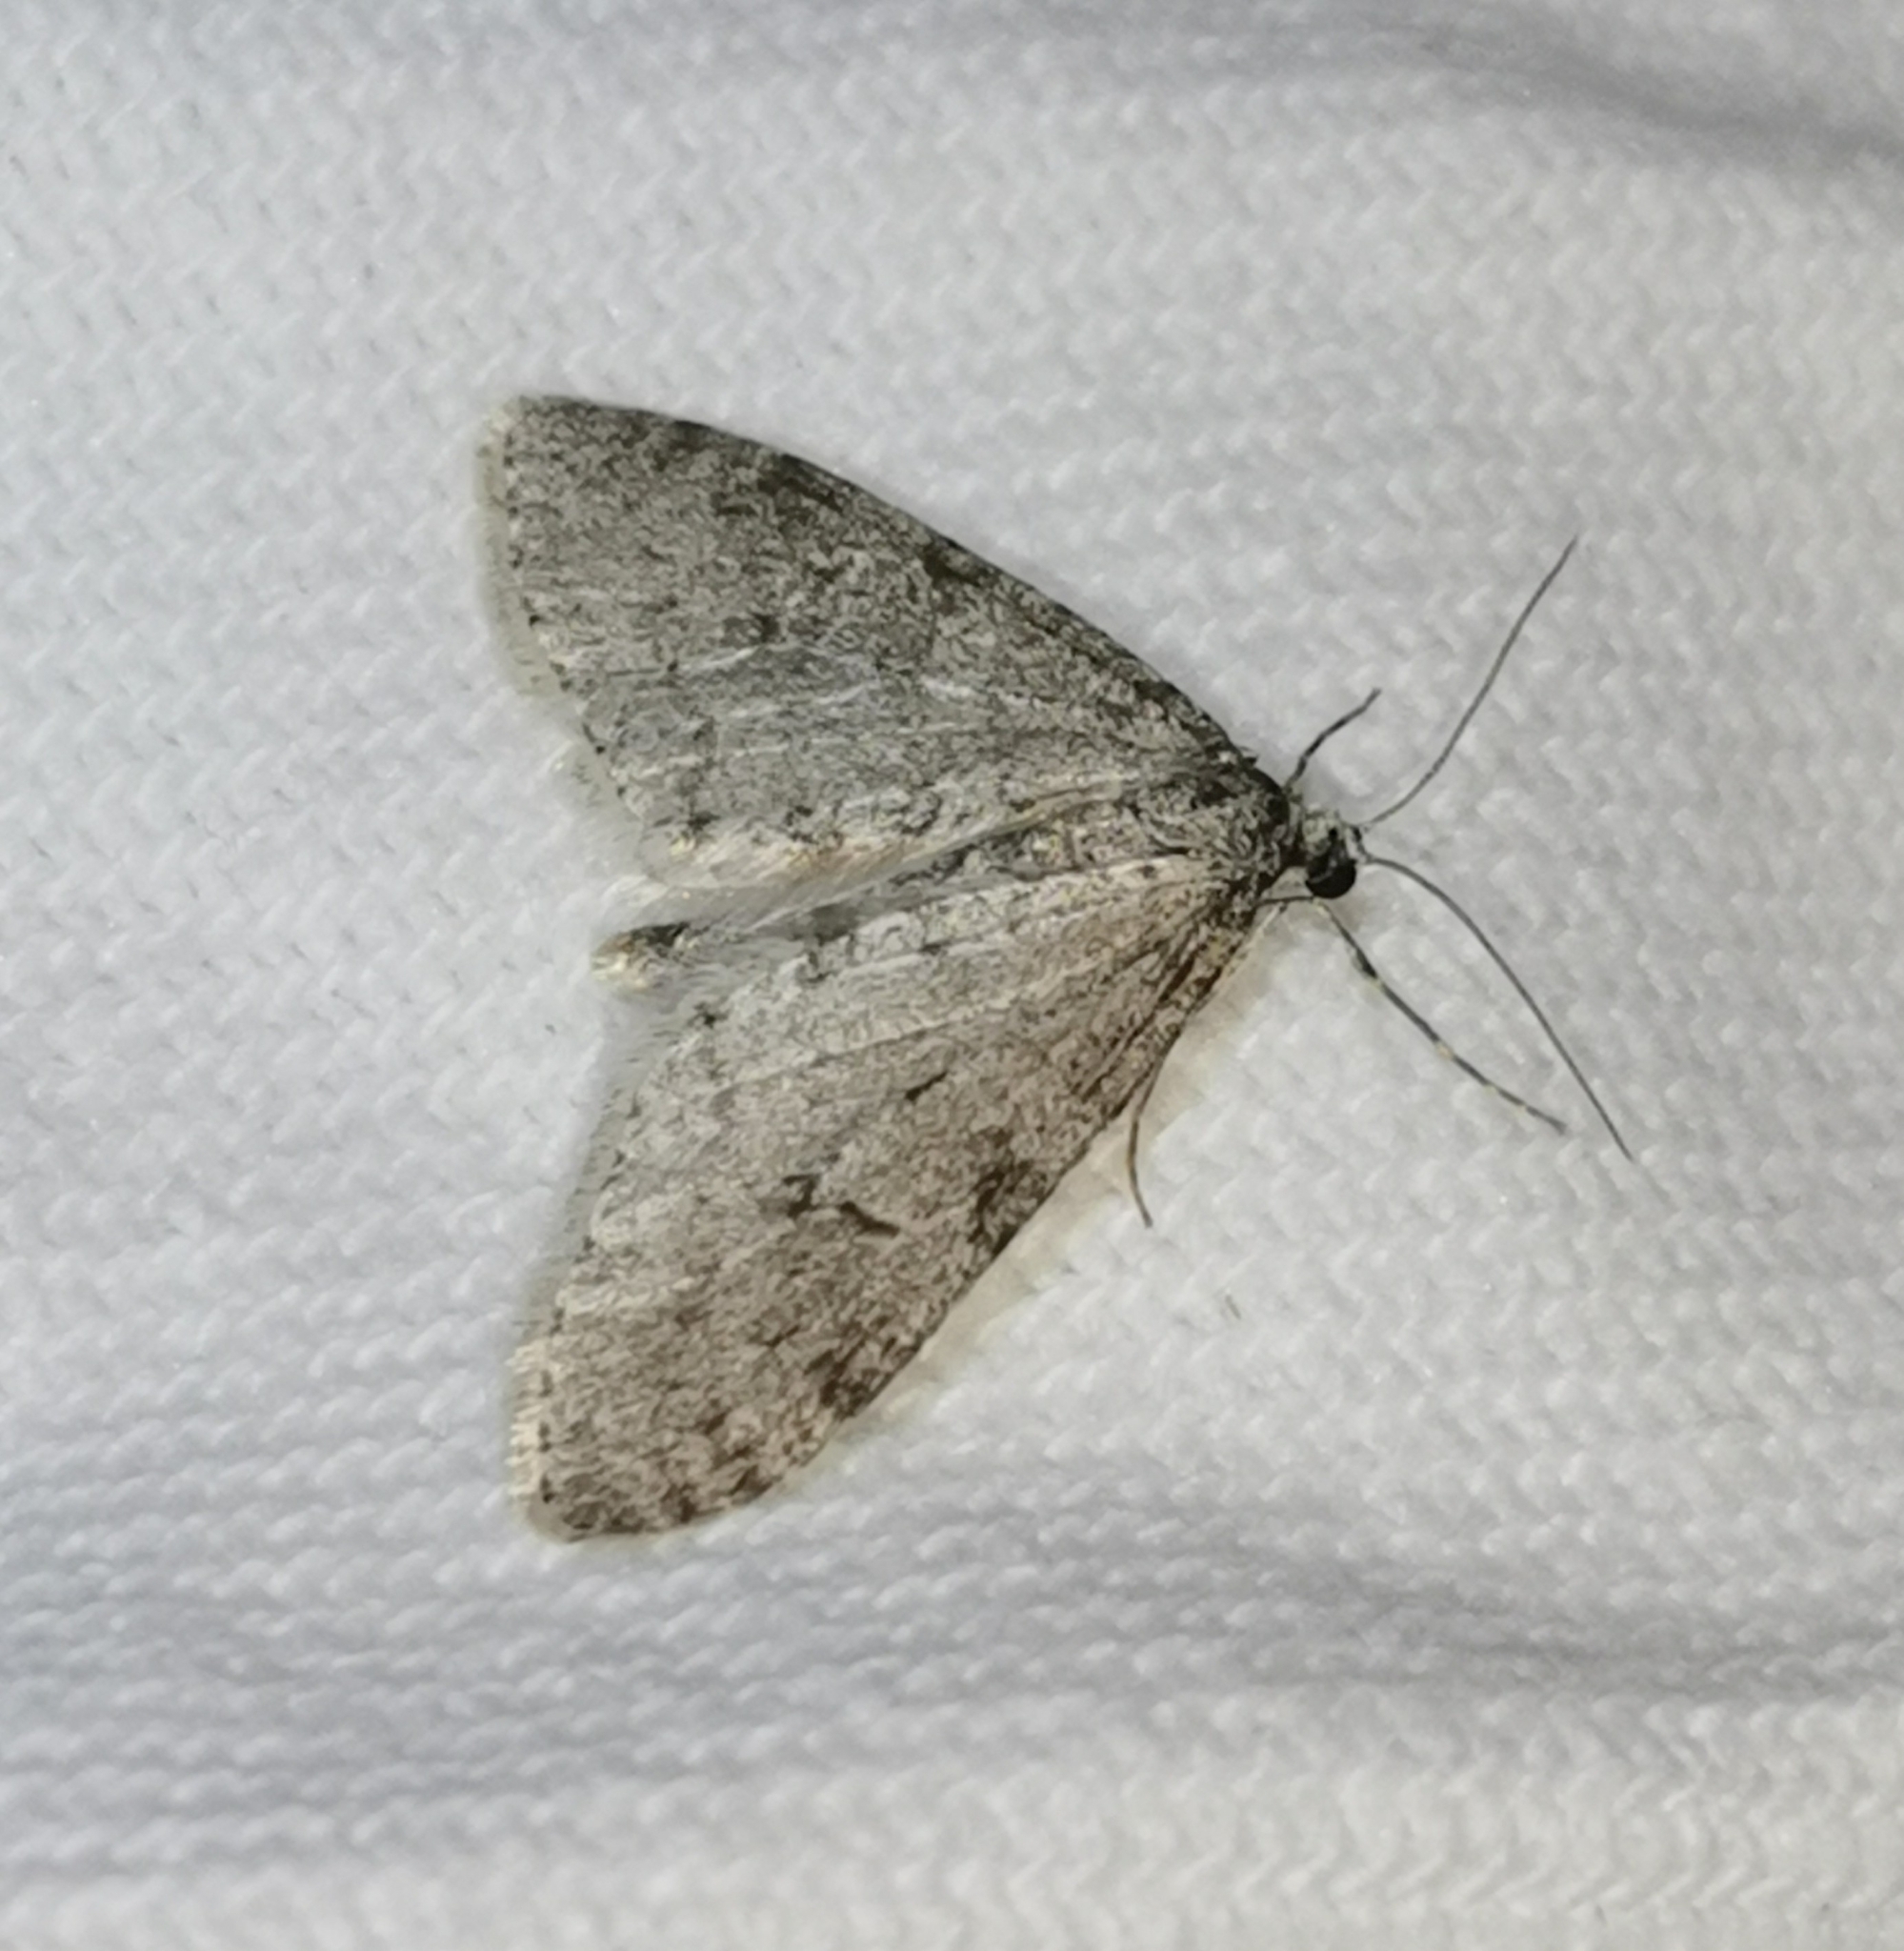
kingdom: Animalia
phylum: Arthropoda
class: Insecta
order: Lepidoptera
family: Geometridae
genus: Trichopteryx
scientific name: Trichopteryx carpinata
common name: Early tooth-striped
